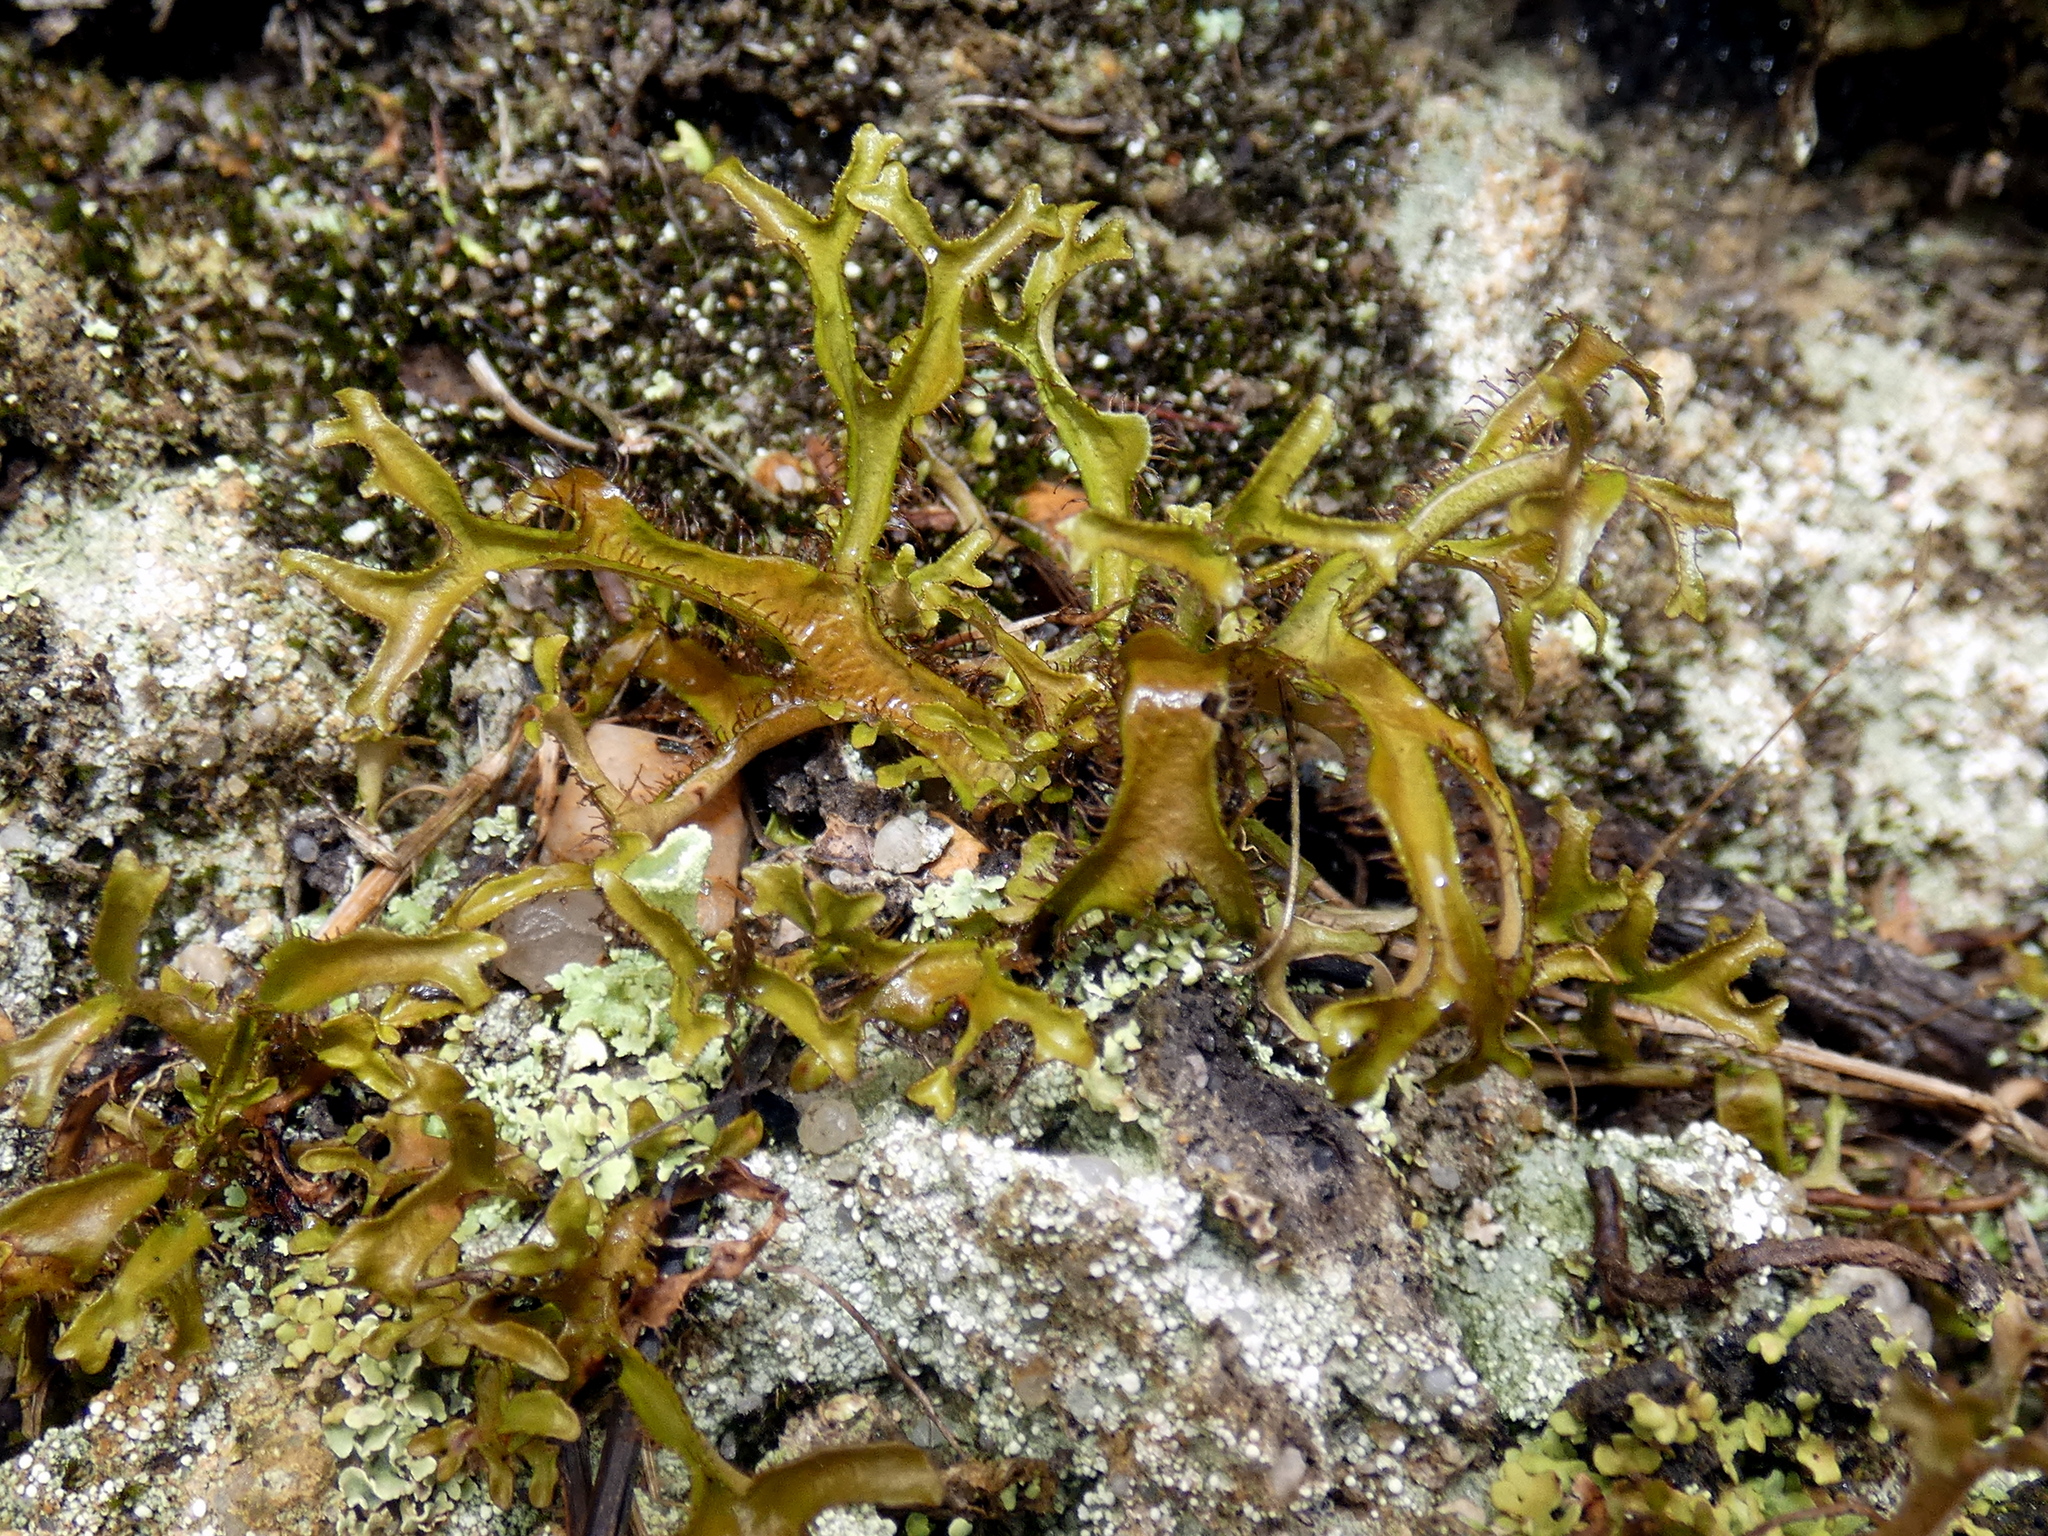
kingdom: Fungi
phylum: Ascomycota
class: Lecanoromycetes
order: Lecanorales
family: Parmeliaceae
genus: Cetraria
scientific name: Cetraria arenaria
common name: Sand-loving iceland lichen
